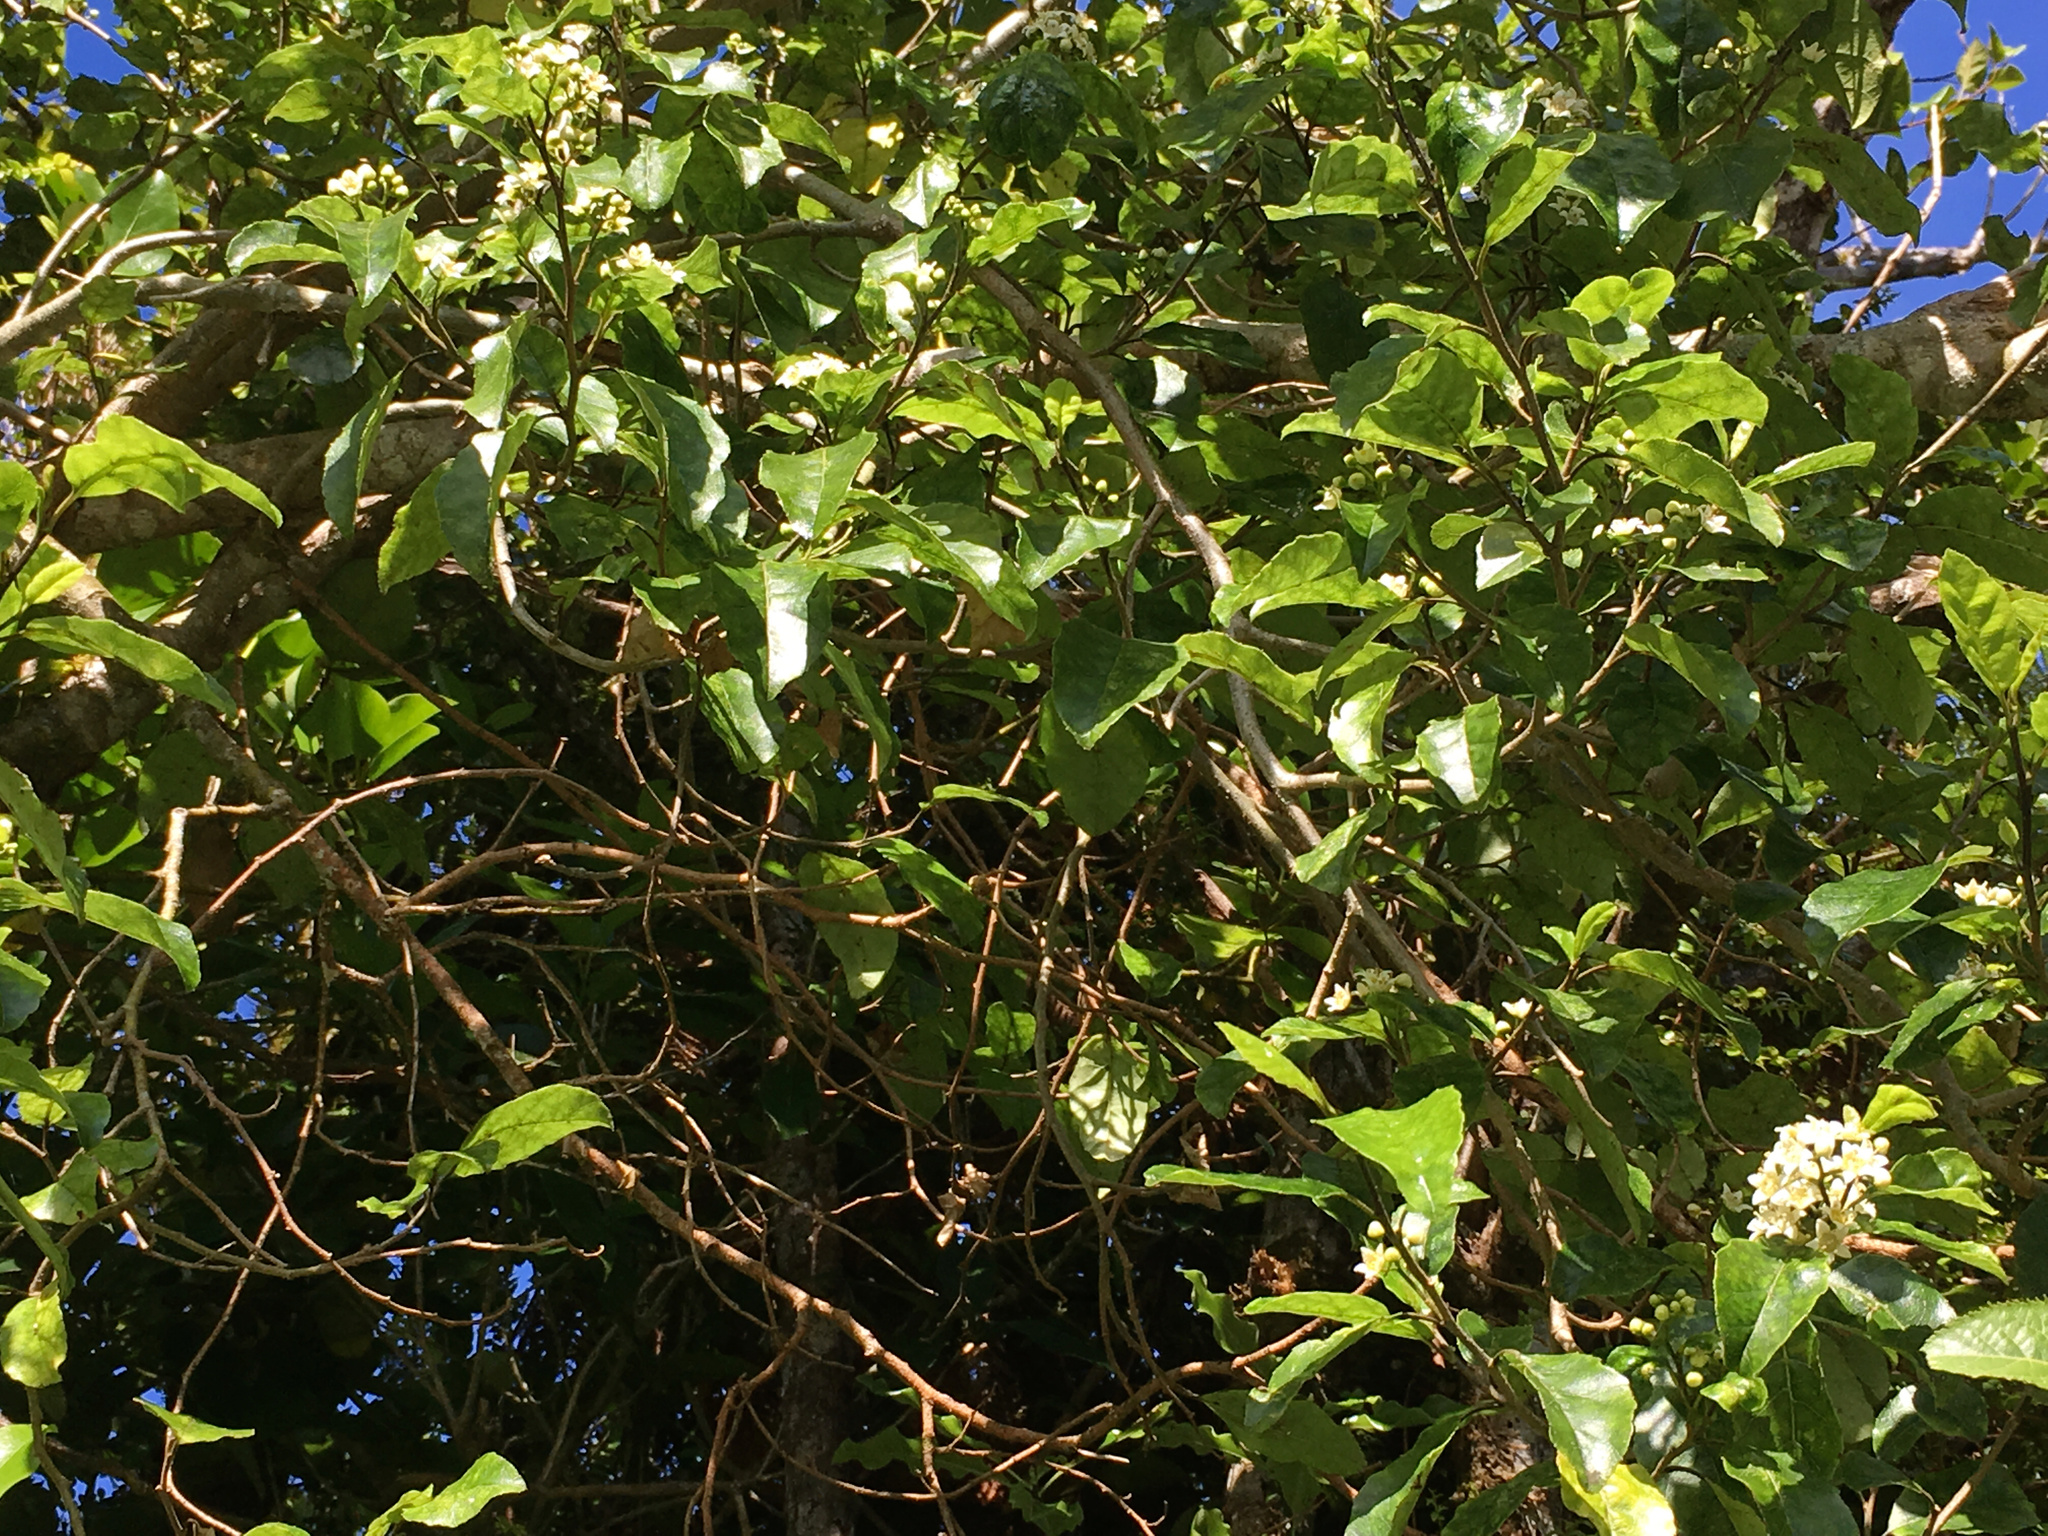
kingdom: Plantae
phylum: Tracheophyta
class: Magnoliopsida
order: Asterales
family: Rousseaceae
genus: Carpodetus
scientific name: Carpodetus serratus
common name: White mapau
